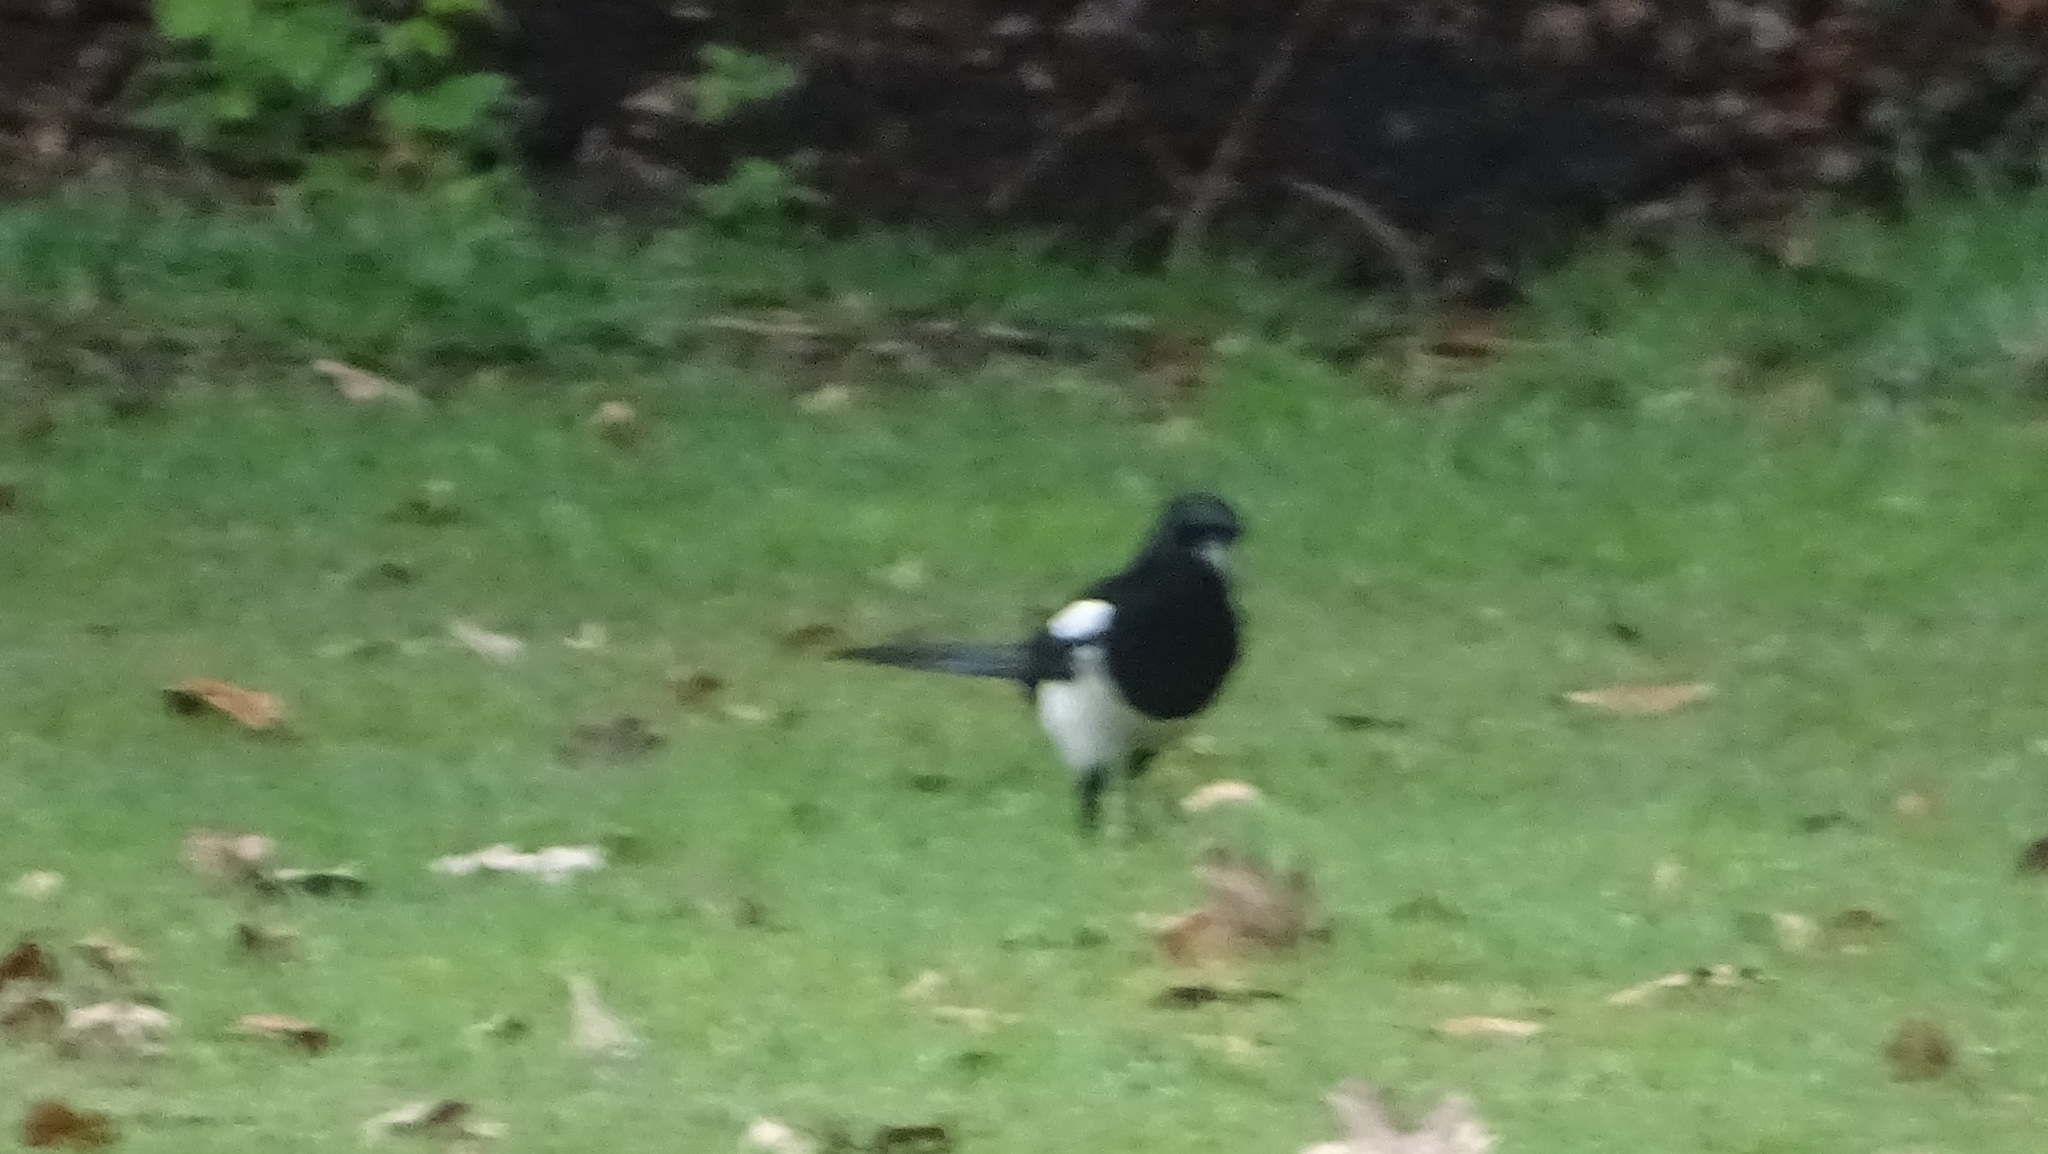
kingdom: Animalia
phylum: Chordata
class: Aves
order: Passeriformes
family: Corvidae
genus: Pica
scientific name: Pica pica
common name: Eurasian magpie
